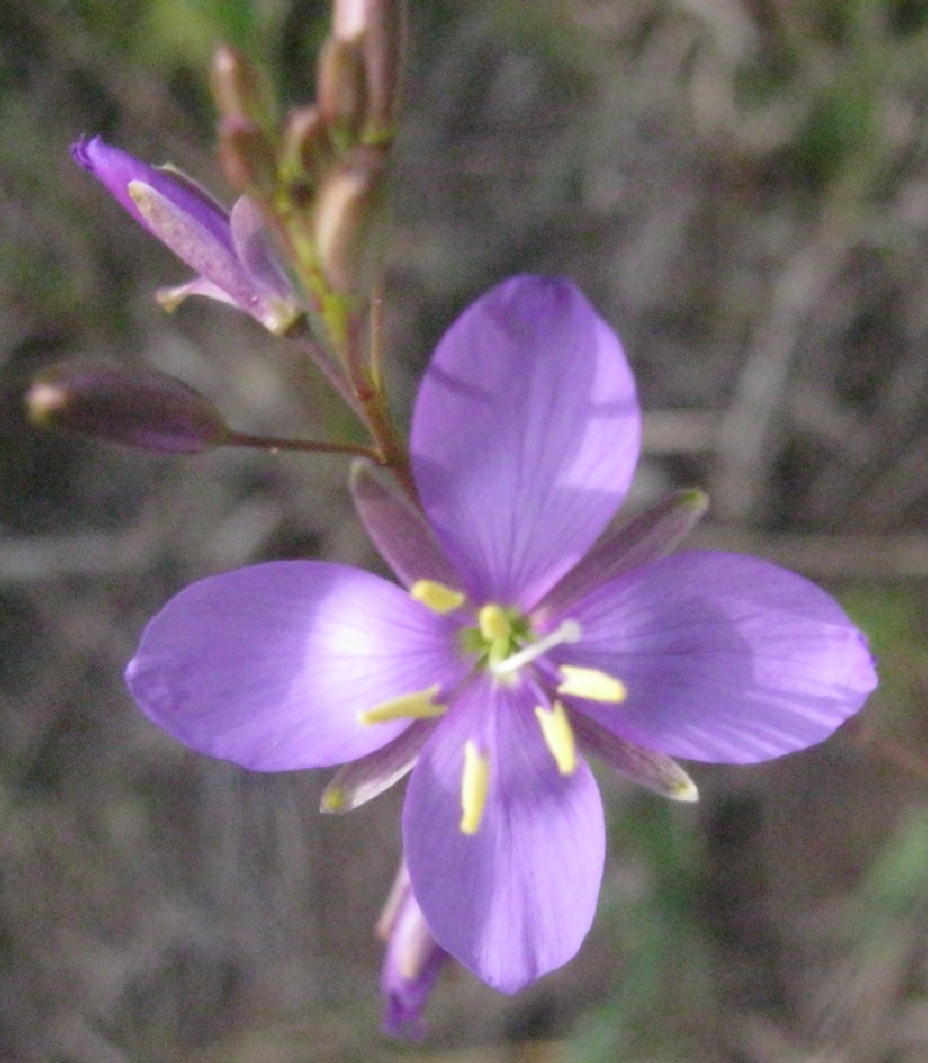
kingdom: Plantae
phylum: Tracheophyta
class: Magnoliopsida
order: Brassicales
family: Brassicaceae
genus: Heliophila
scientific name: Heliophila subulata
